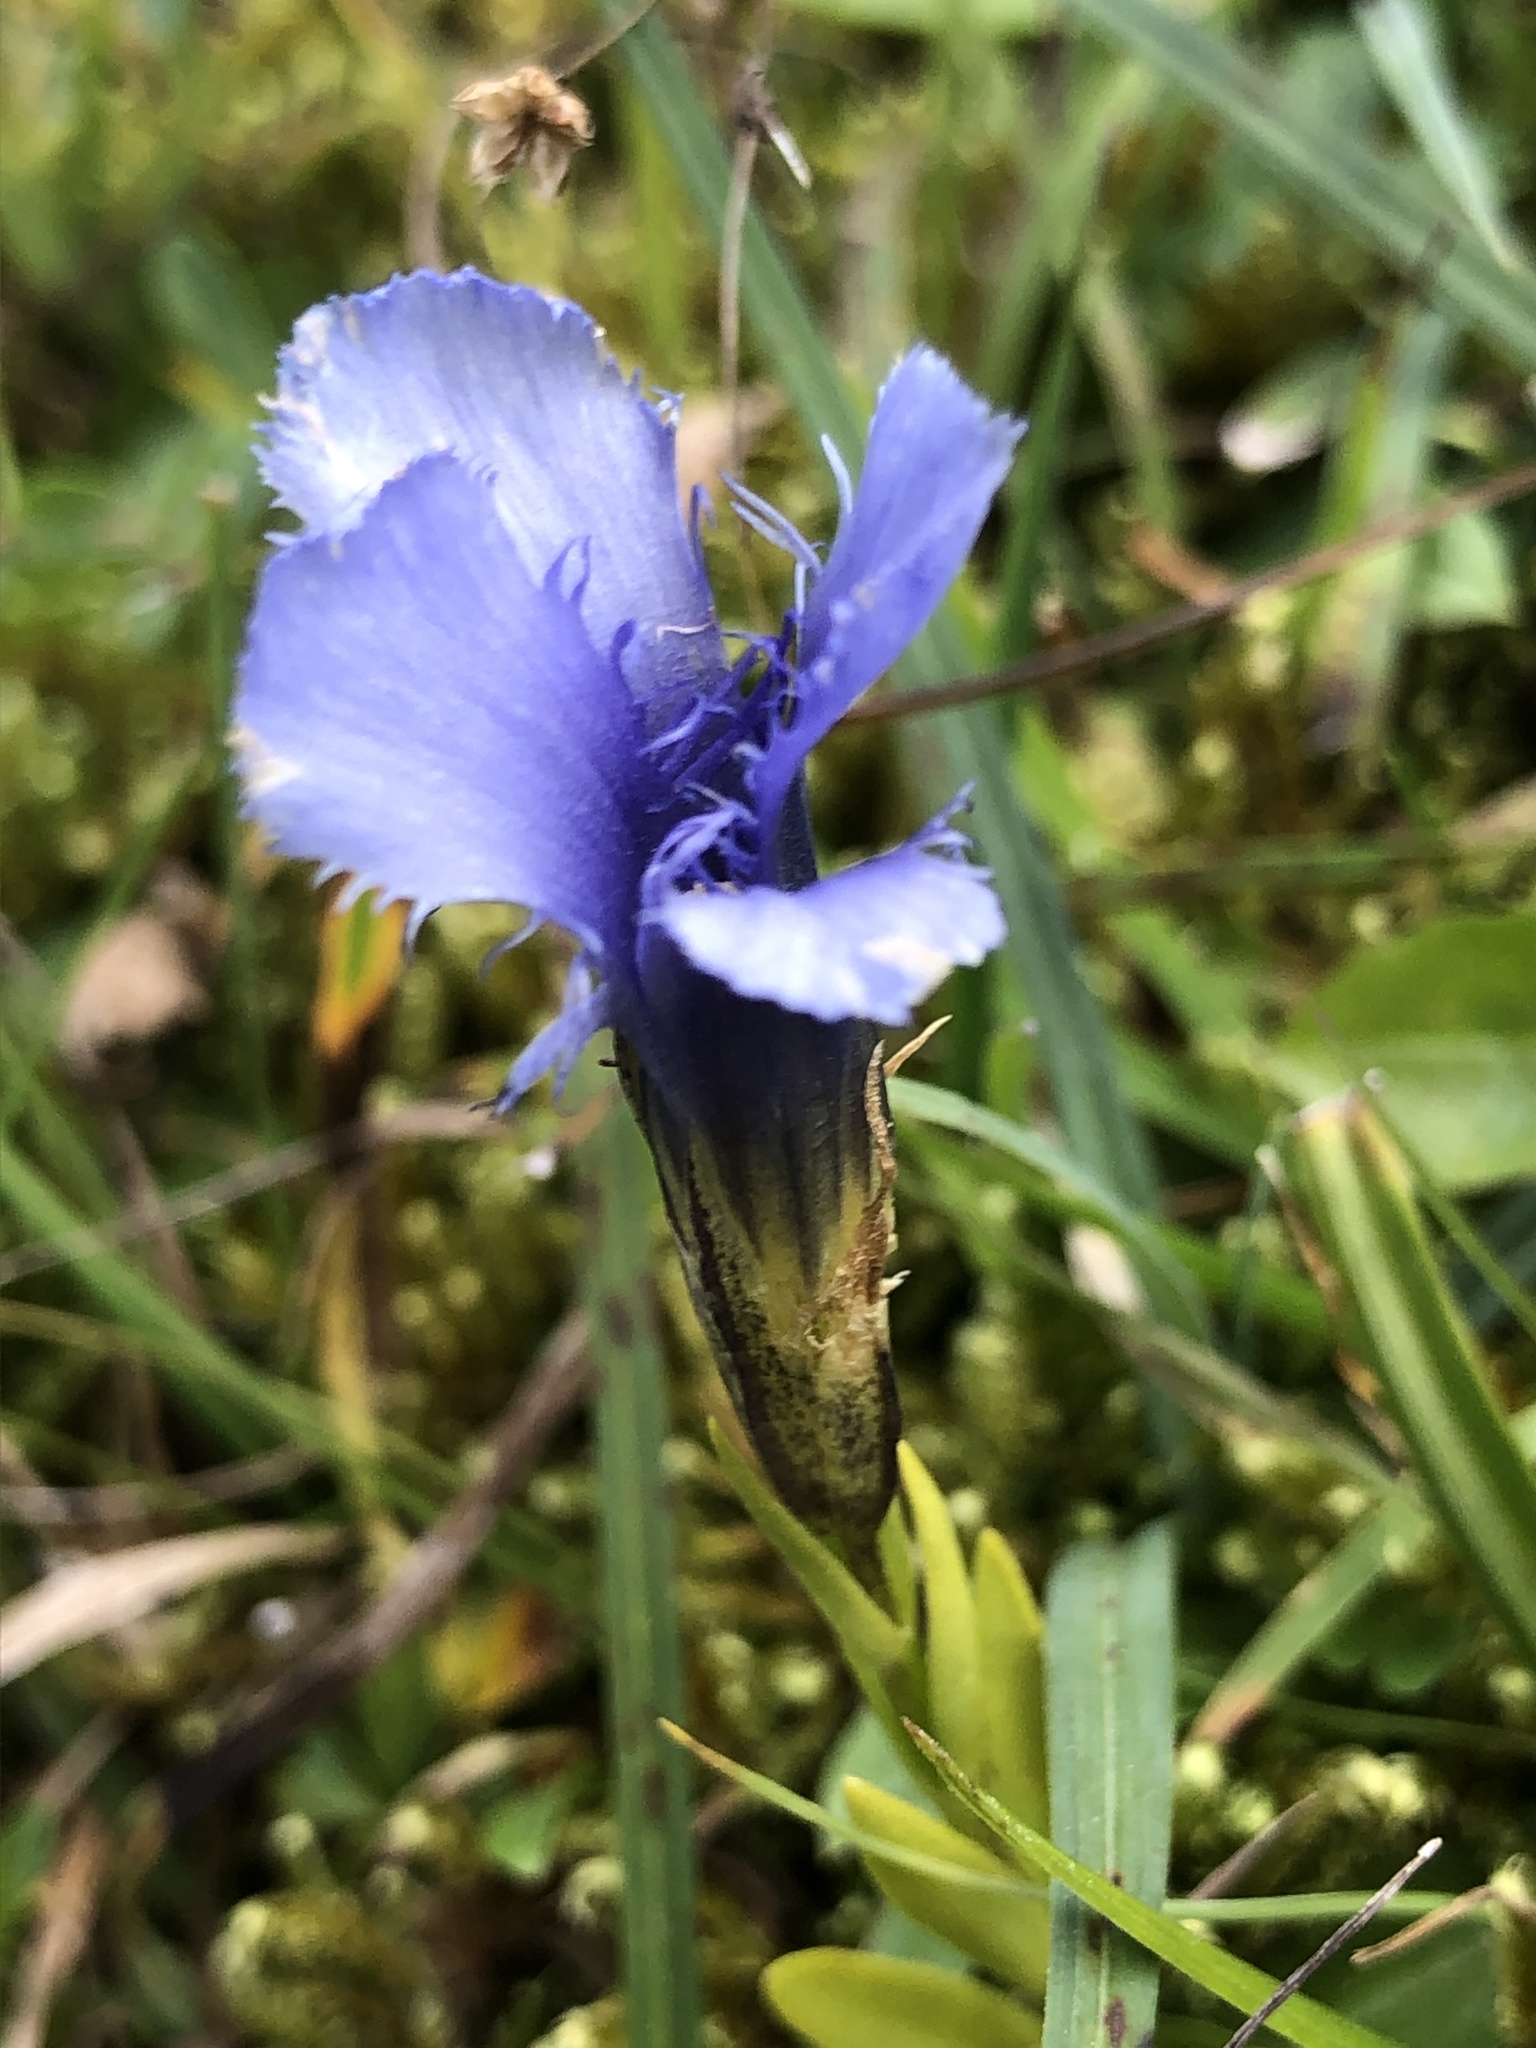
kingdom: Plantae
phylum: Tracheophyta
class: Magnoliopsida
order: Gentianales
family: Gentianaceae
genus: Gentianopsis
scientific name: Gentianopsis ciliata
